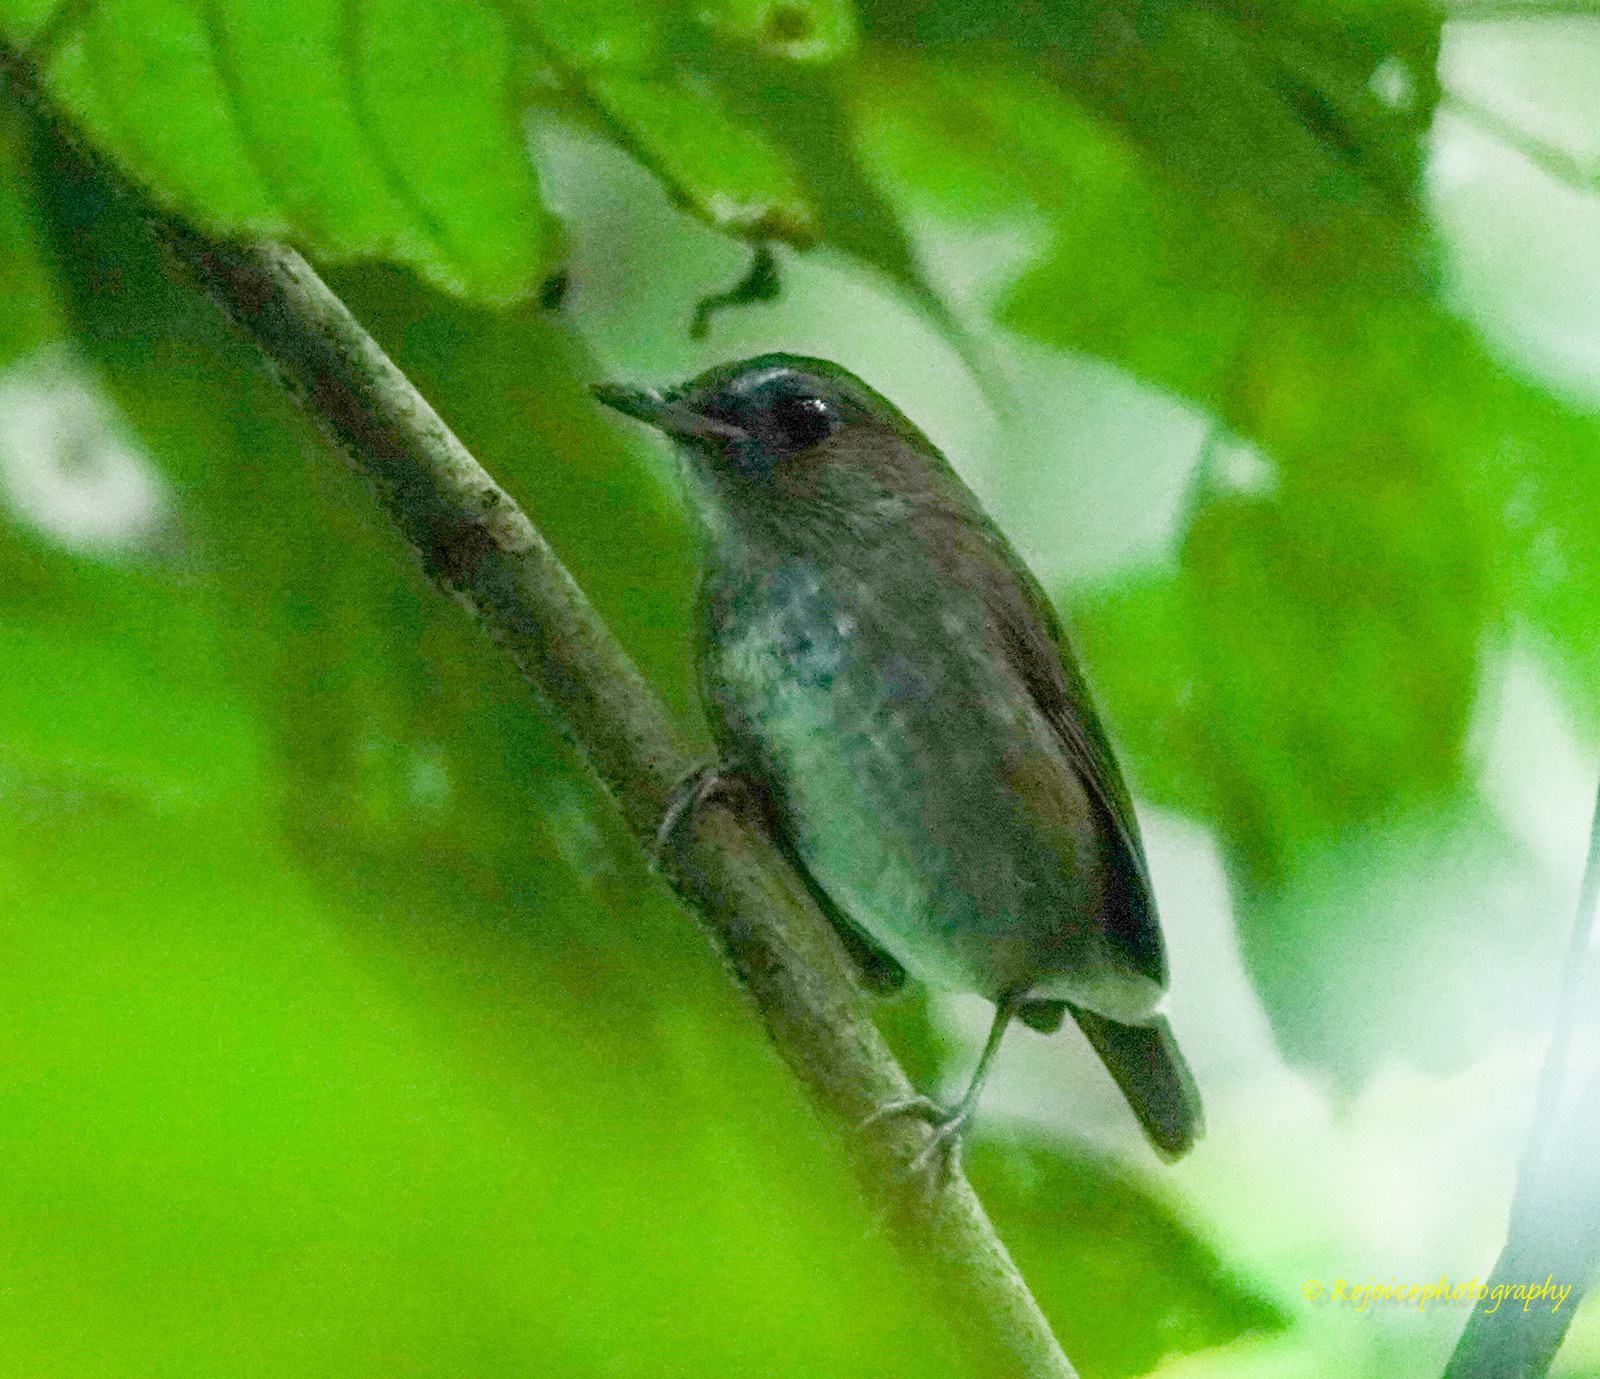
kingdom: Animalia
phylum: Chordata
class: Aves
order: Passeriformes
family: Muscicapidae
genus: Brachypteryx
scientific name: Brachypteryx leucophris
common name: Lesser shortwing
